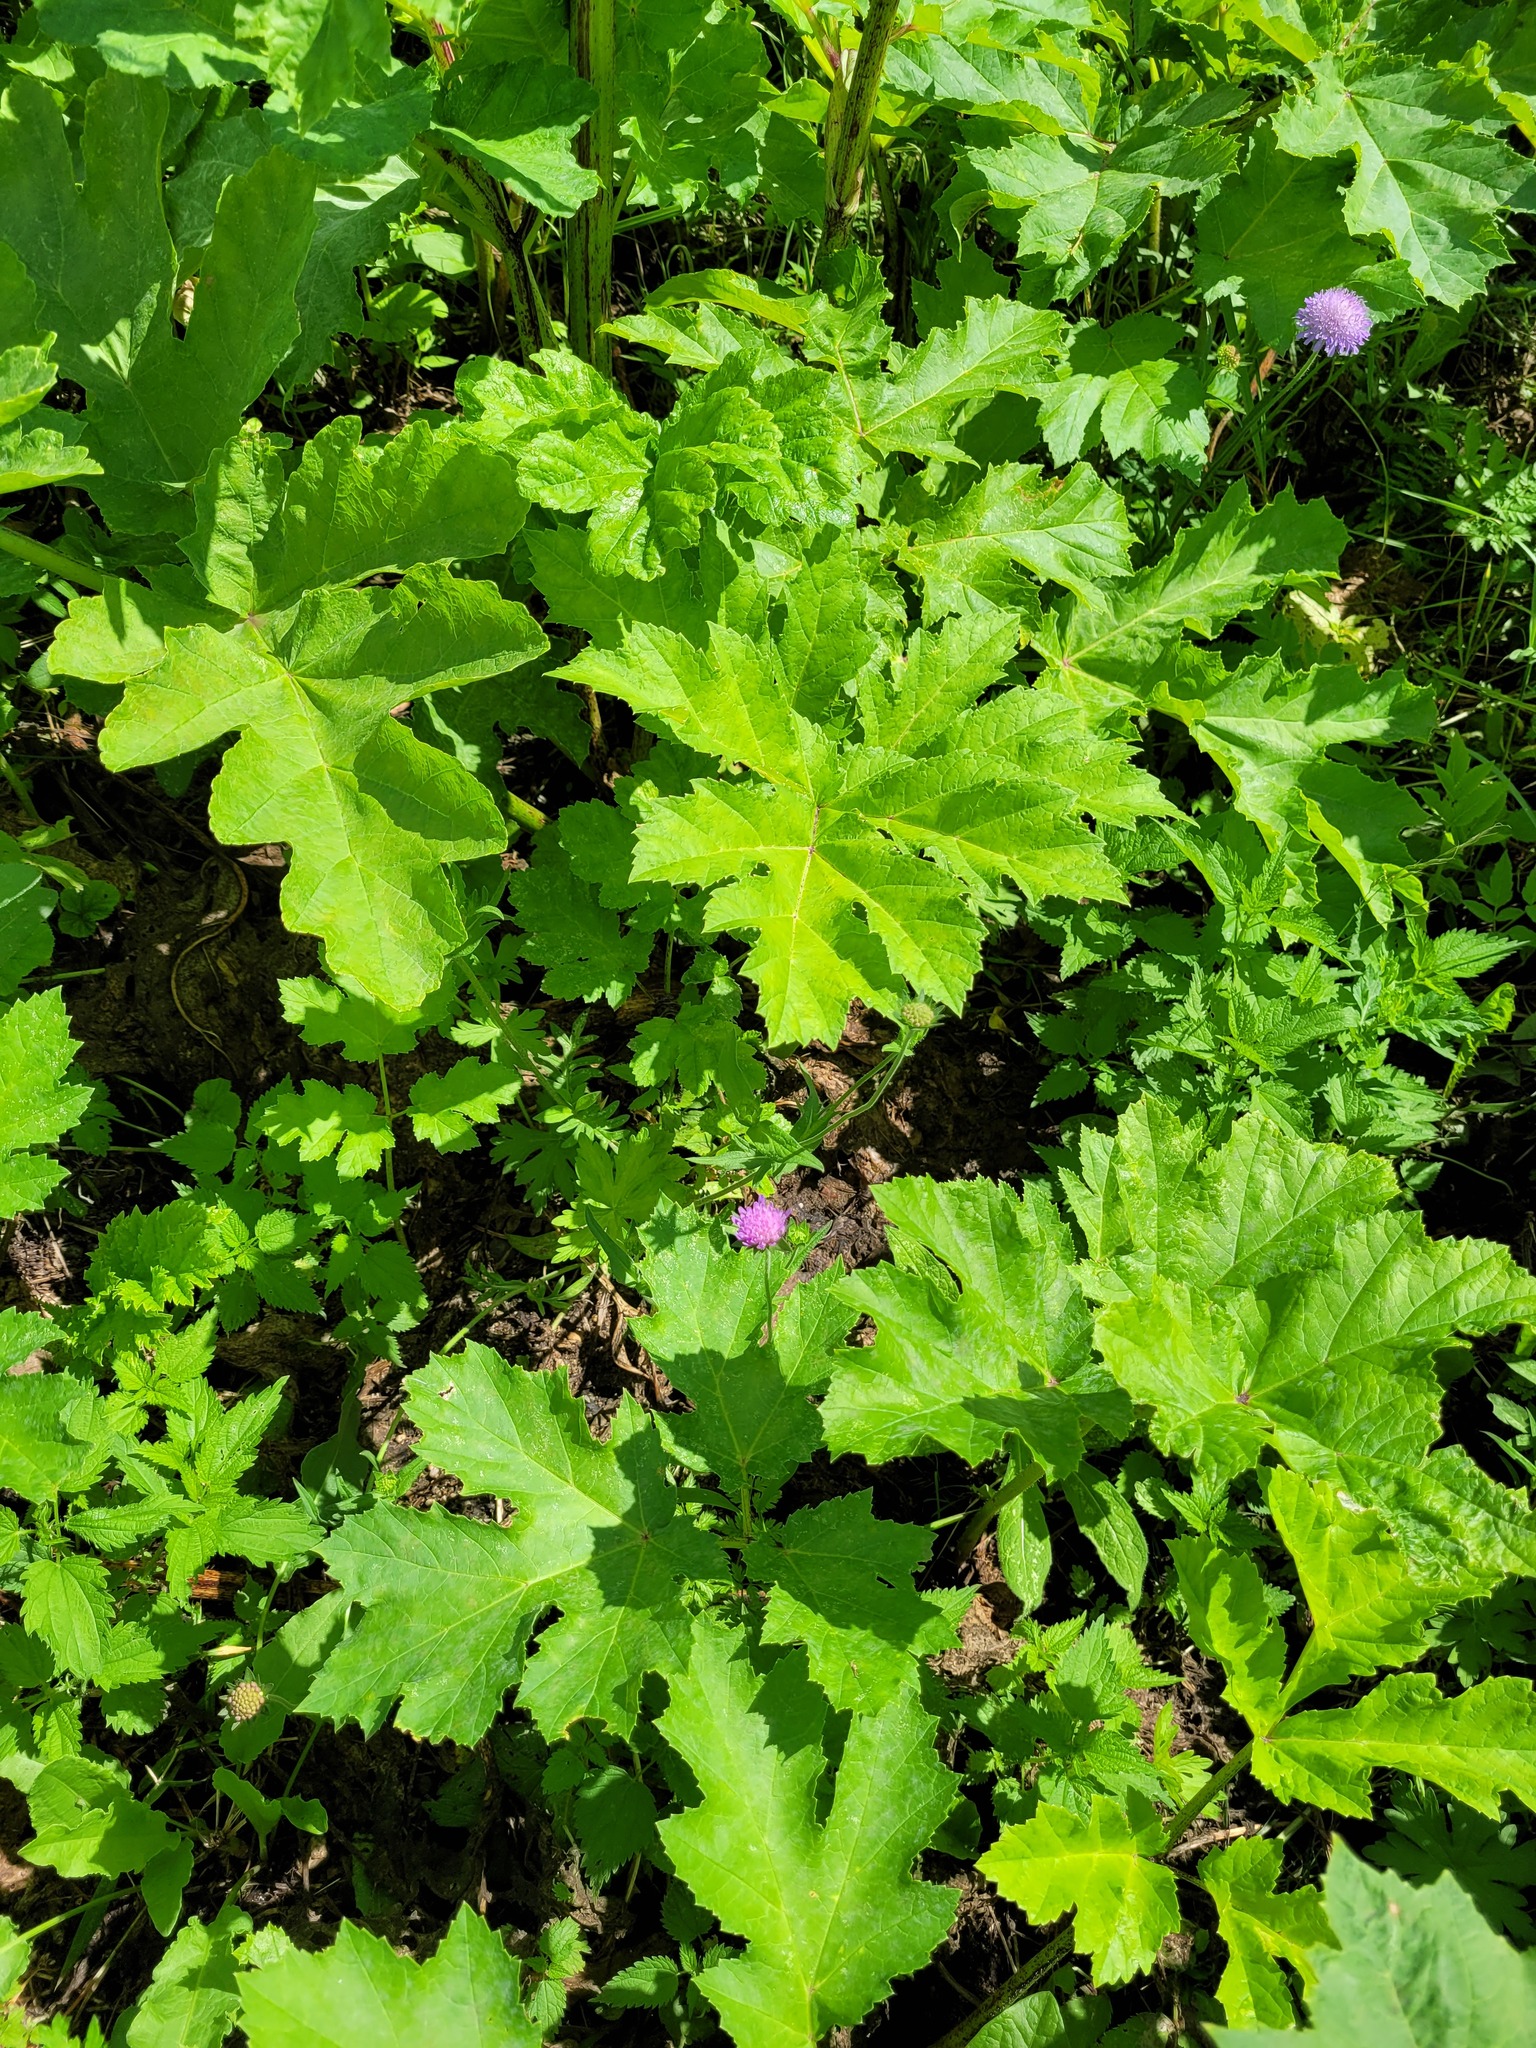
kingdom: Plantae
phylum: Tracheophyta
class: Magnoliopsida
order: Dipsacales
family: Caprifoliaceae
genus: Knautia
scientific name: Knautia arvensis
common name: Field scabiosa
